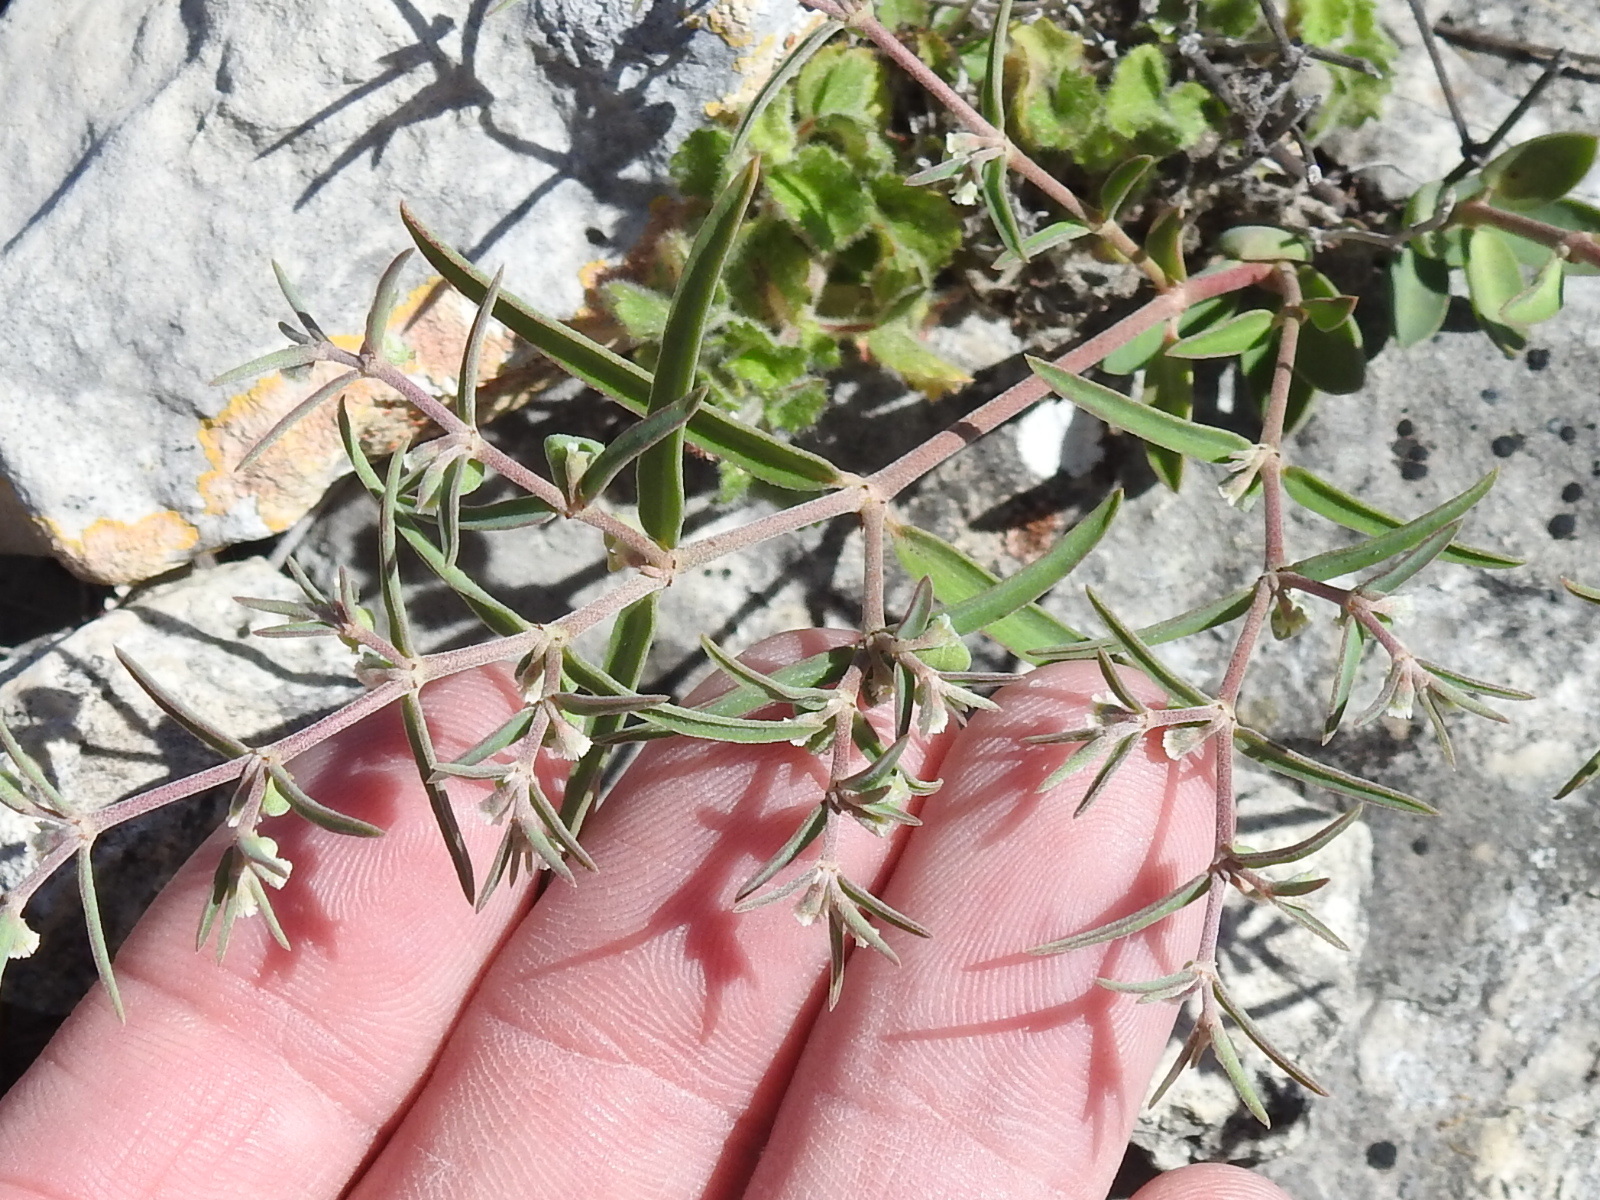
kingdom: Plantae
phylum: Tracheophyta
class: Magnoliopsida
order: Malpighiales
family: Euphorbiaceae
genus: Euphorbia
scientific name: Euphorbia angusta
